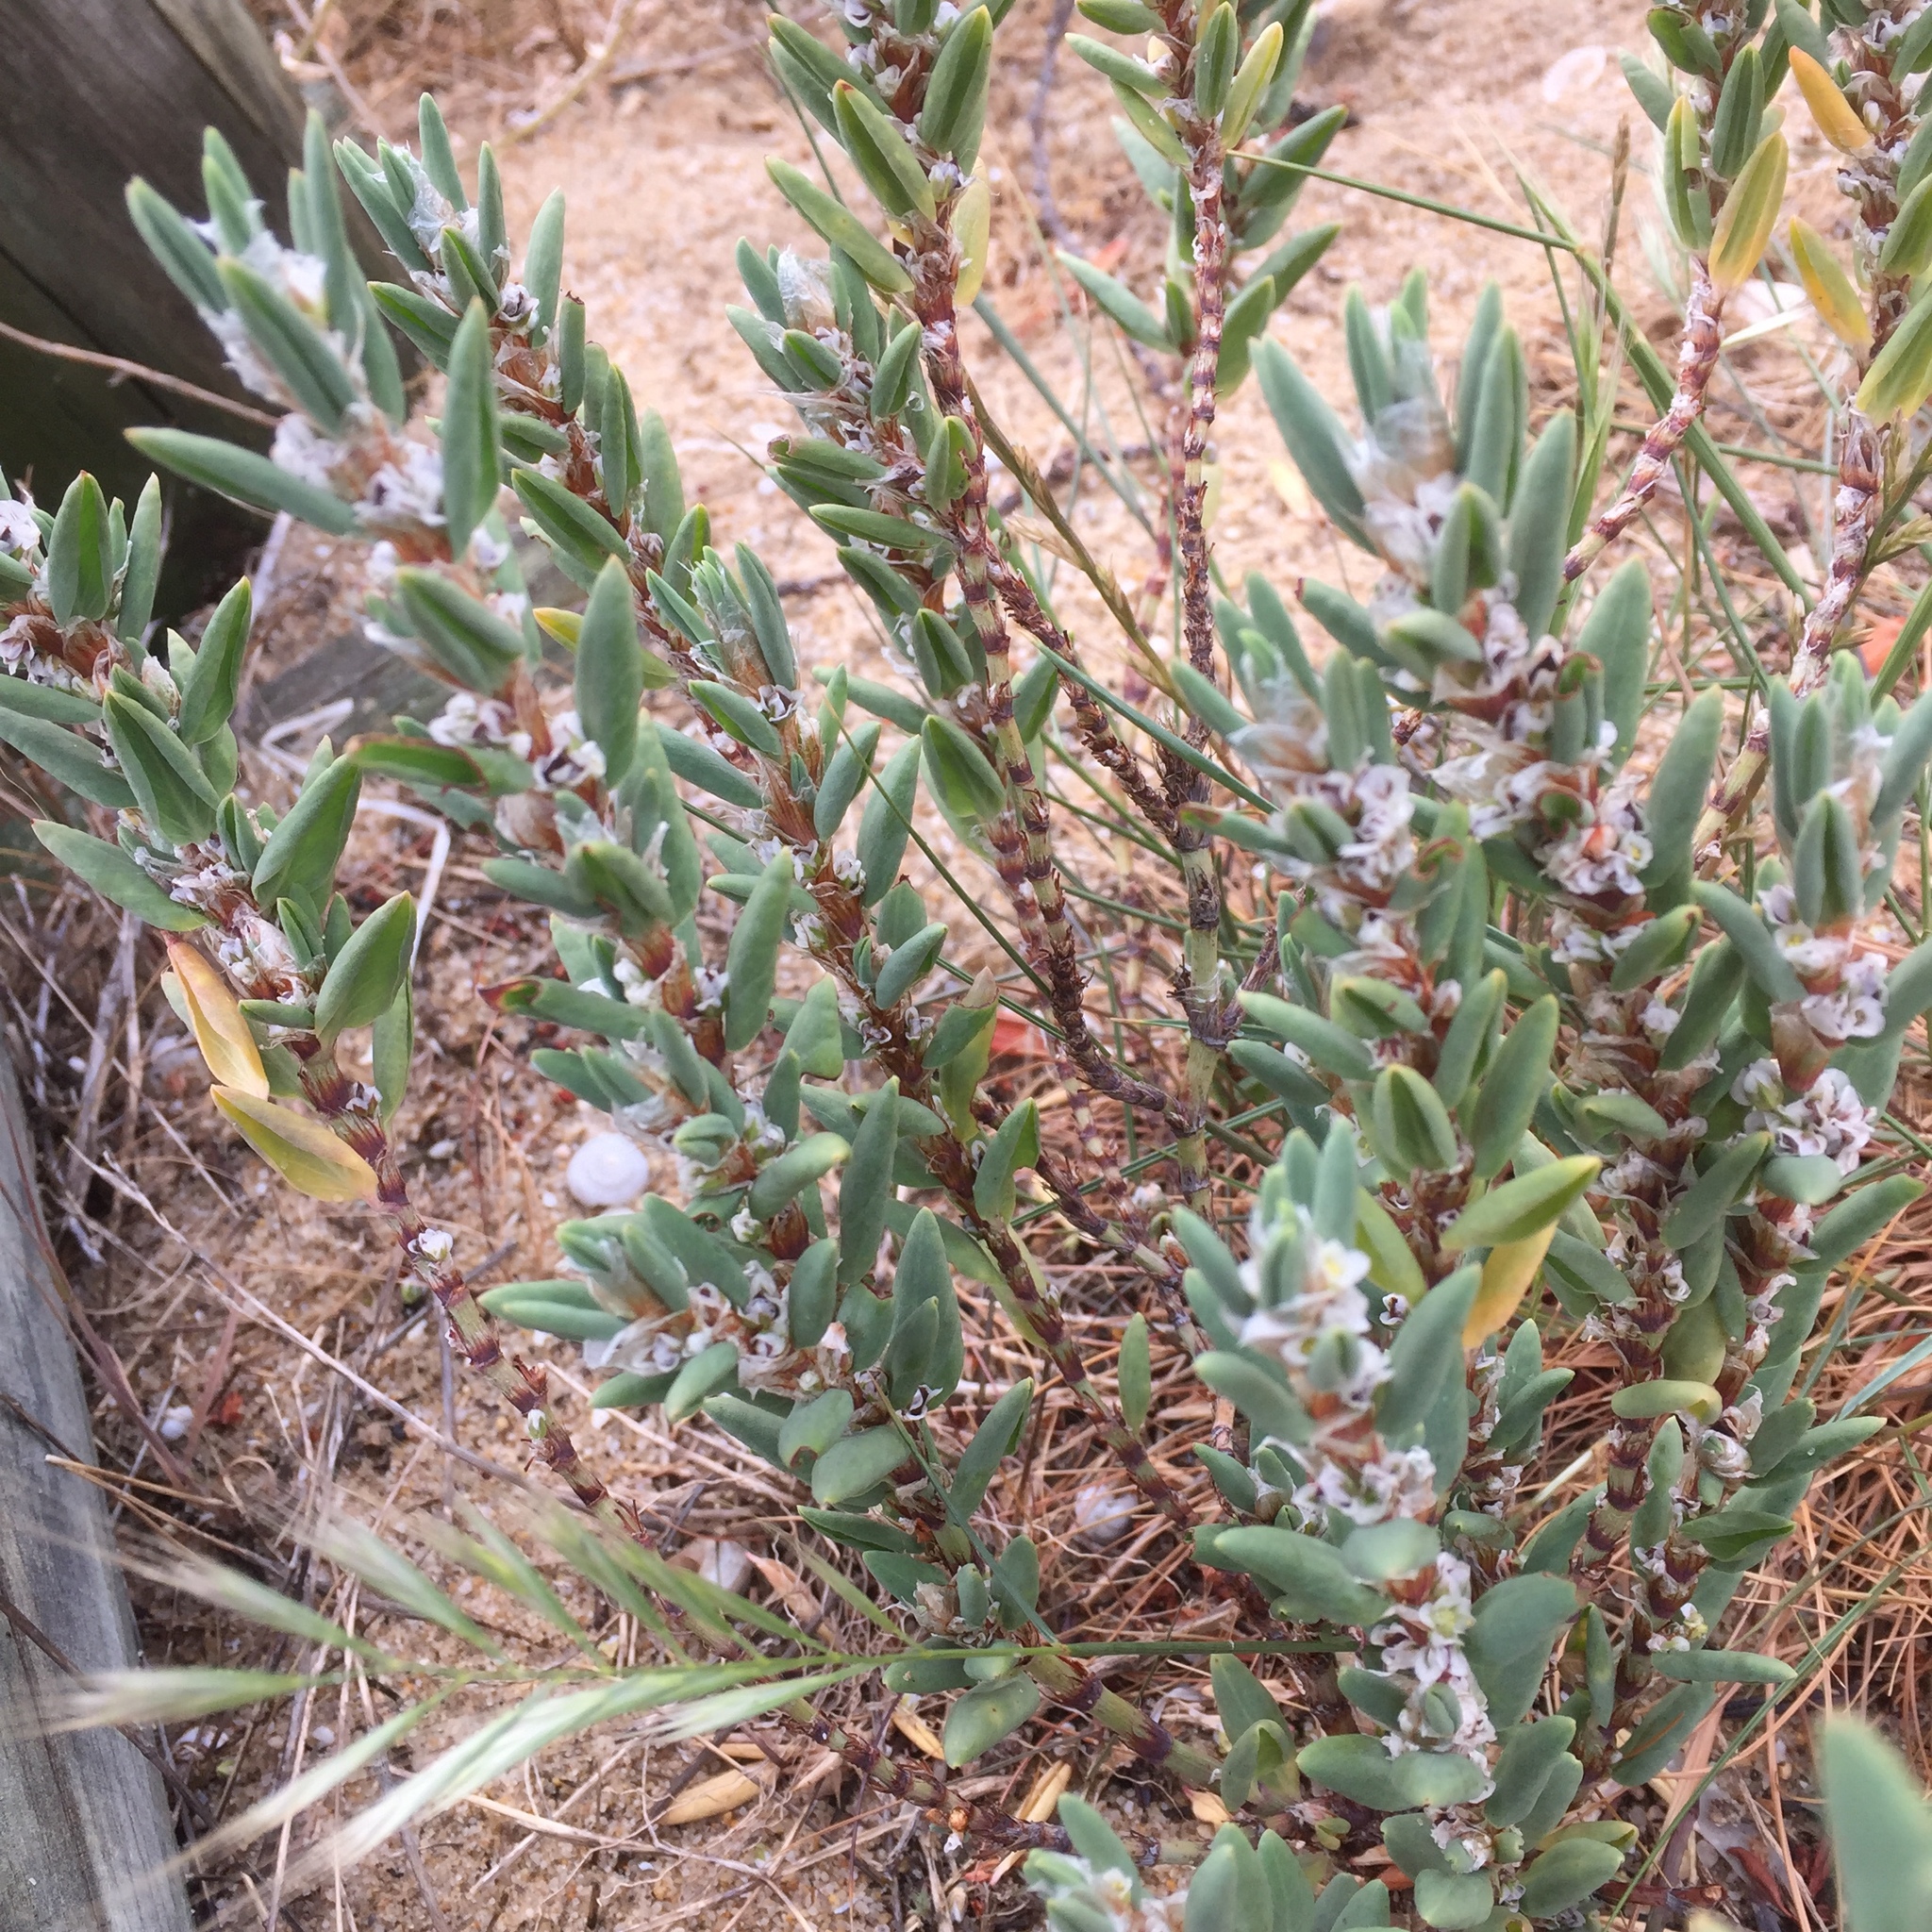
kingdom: Plantae
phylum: Tracheophyta
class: Magnoliopsida
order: Caryophyllales
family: Polygonaceae
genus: Polygonum
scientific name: Polygonum maritimum
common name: Sea knotgrass
